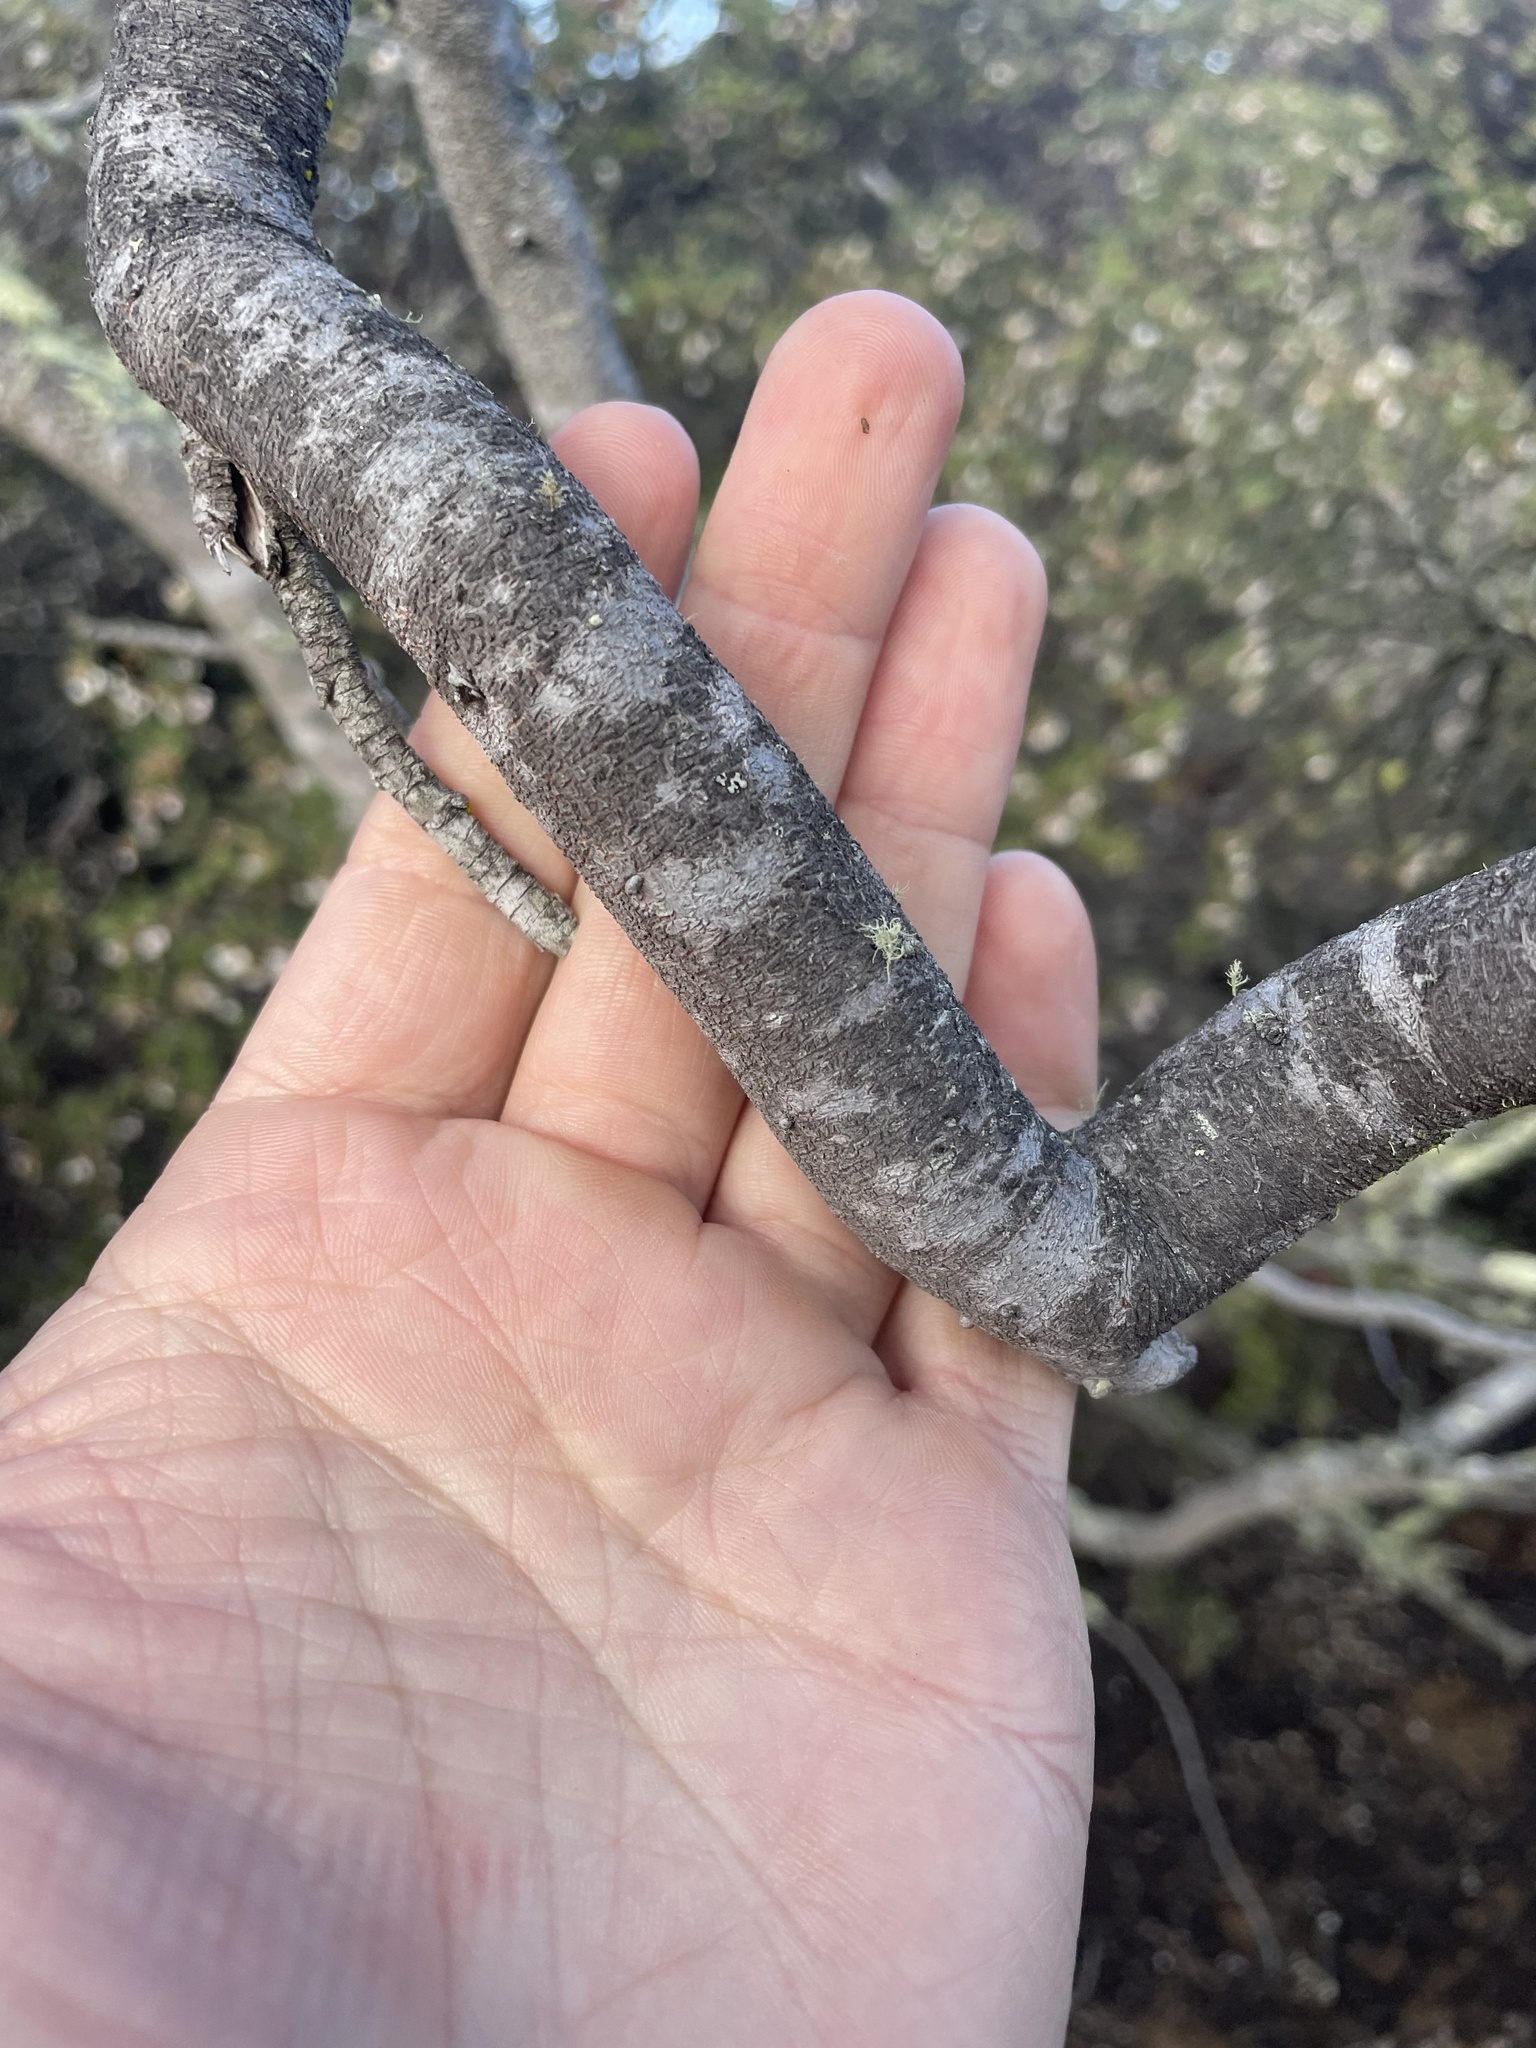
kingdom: Plantae
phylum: Tracheophyta
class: Magnoliopsida
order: Boraginales
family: Namaceae
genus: Eriodictyon
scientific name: Eriodictyon altissimum
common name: Indian knob mountain balm
